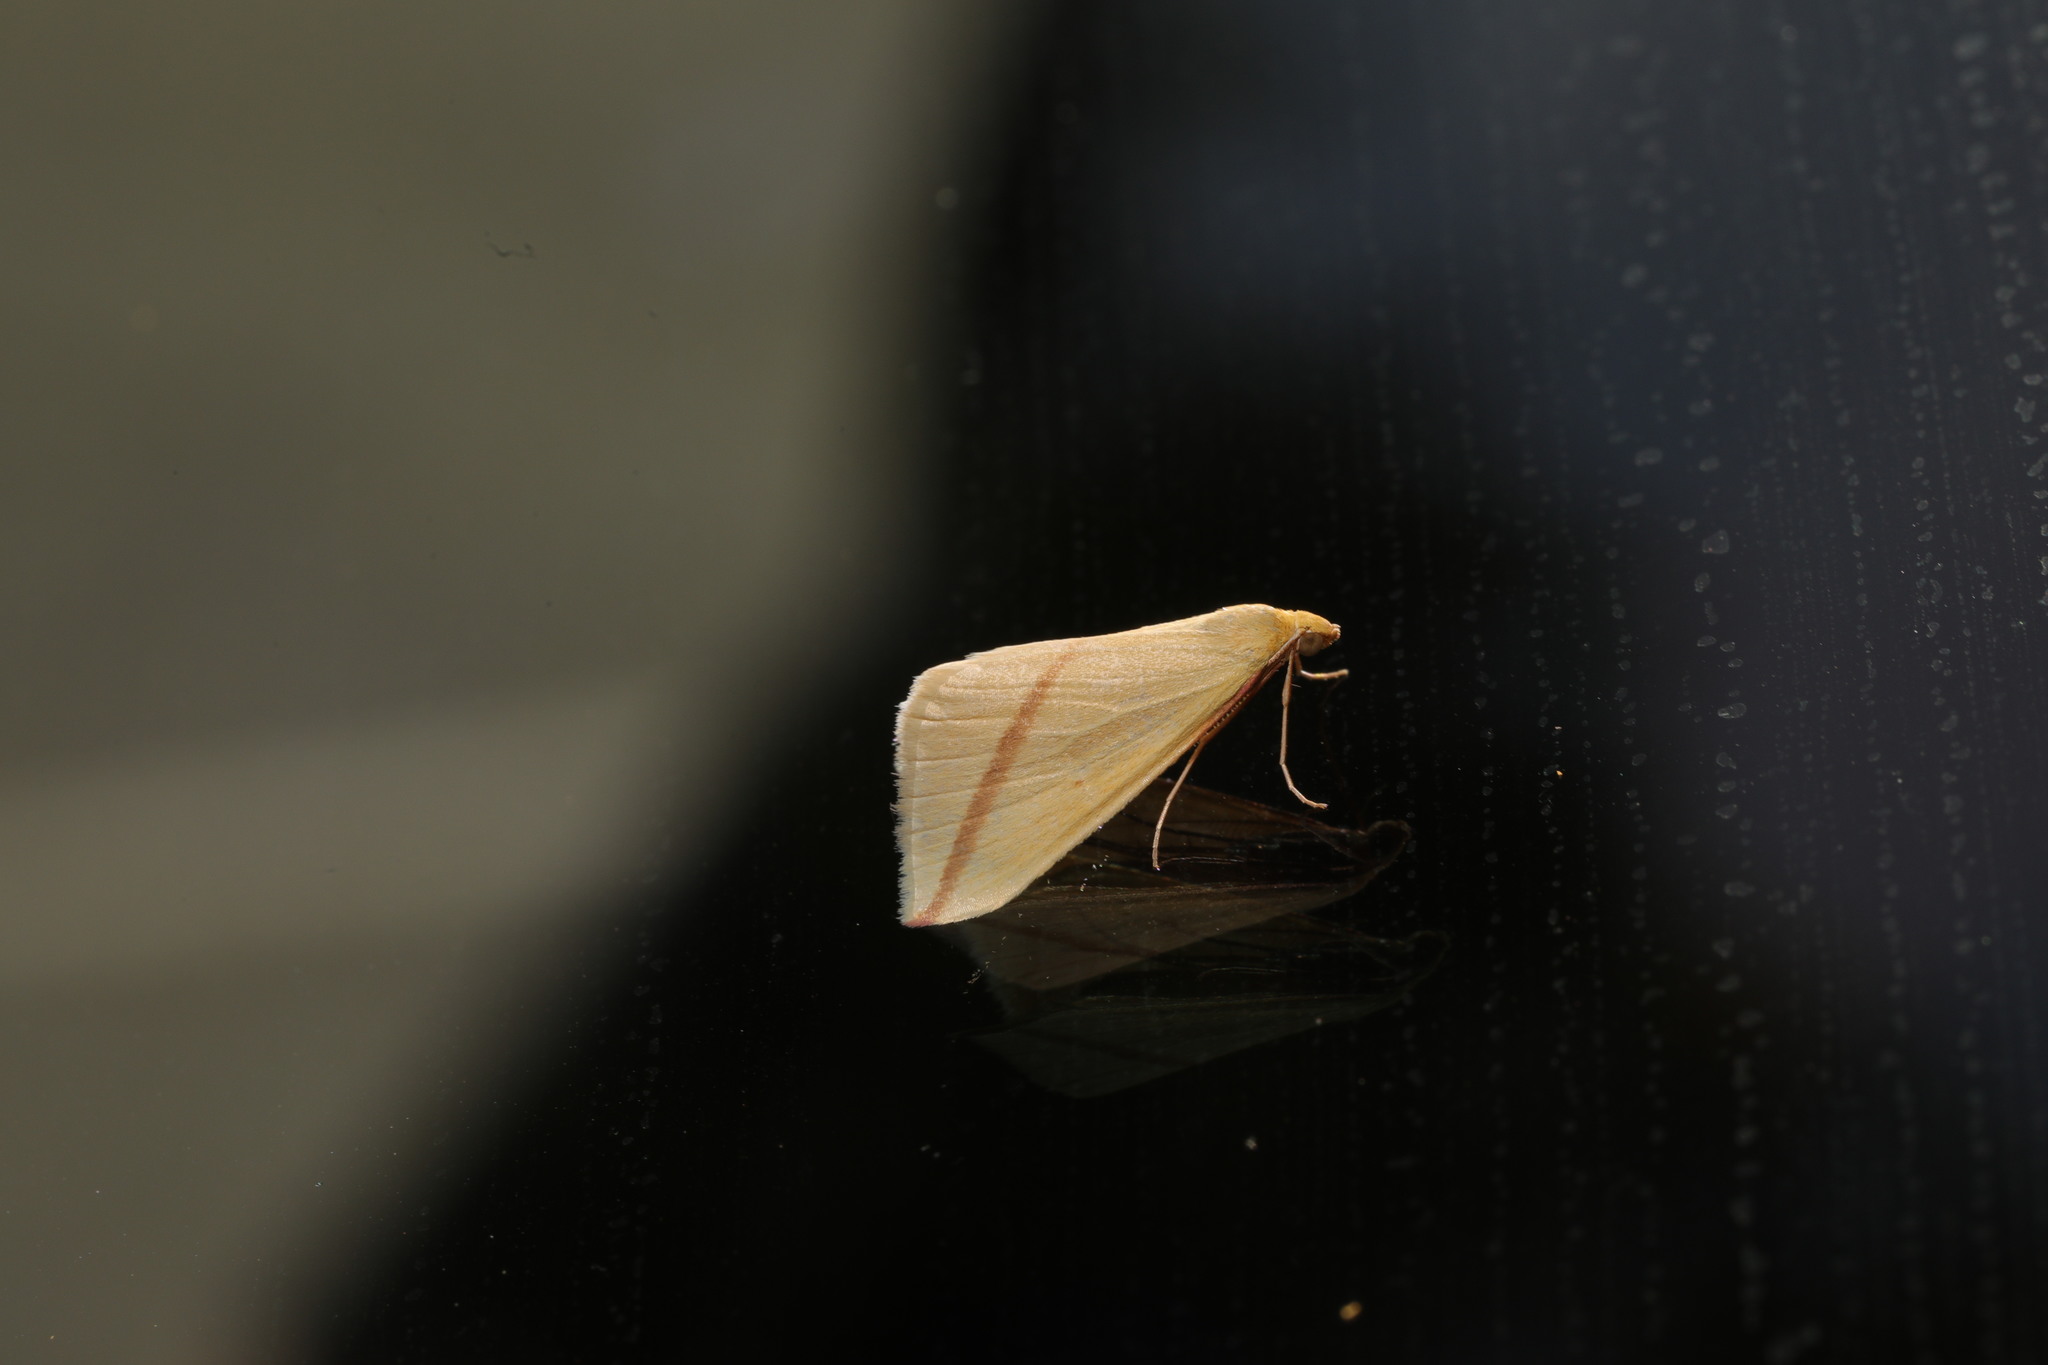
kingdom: Animalia
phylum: Arthropoda
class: Insecta
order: Lepidoptera
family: Geometridae
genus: Rhodometra
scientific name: Rhodometra sacraria
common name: Vestal
